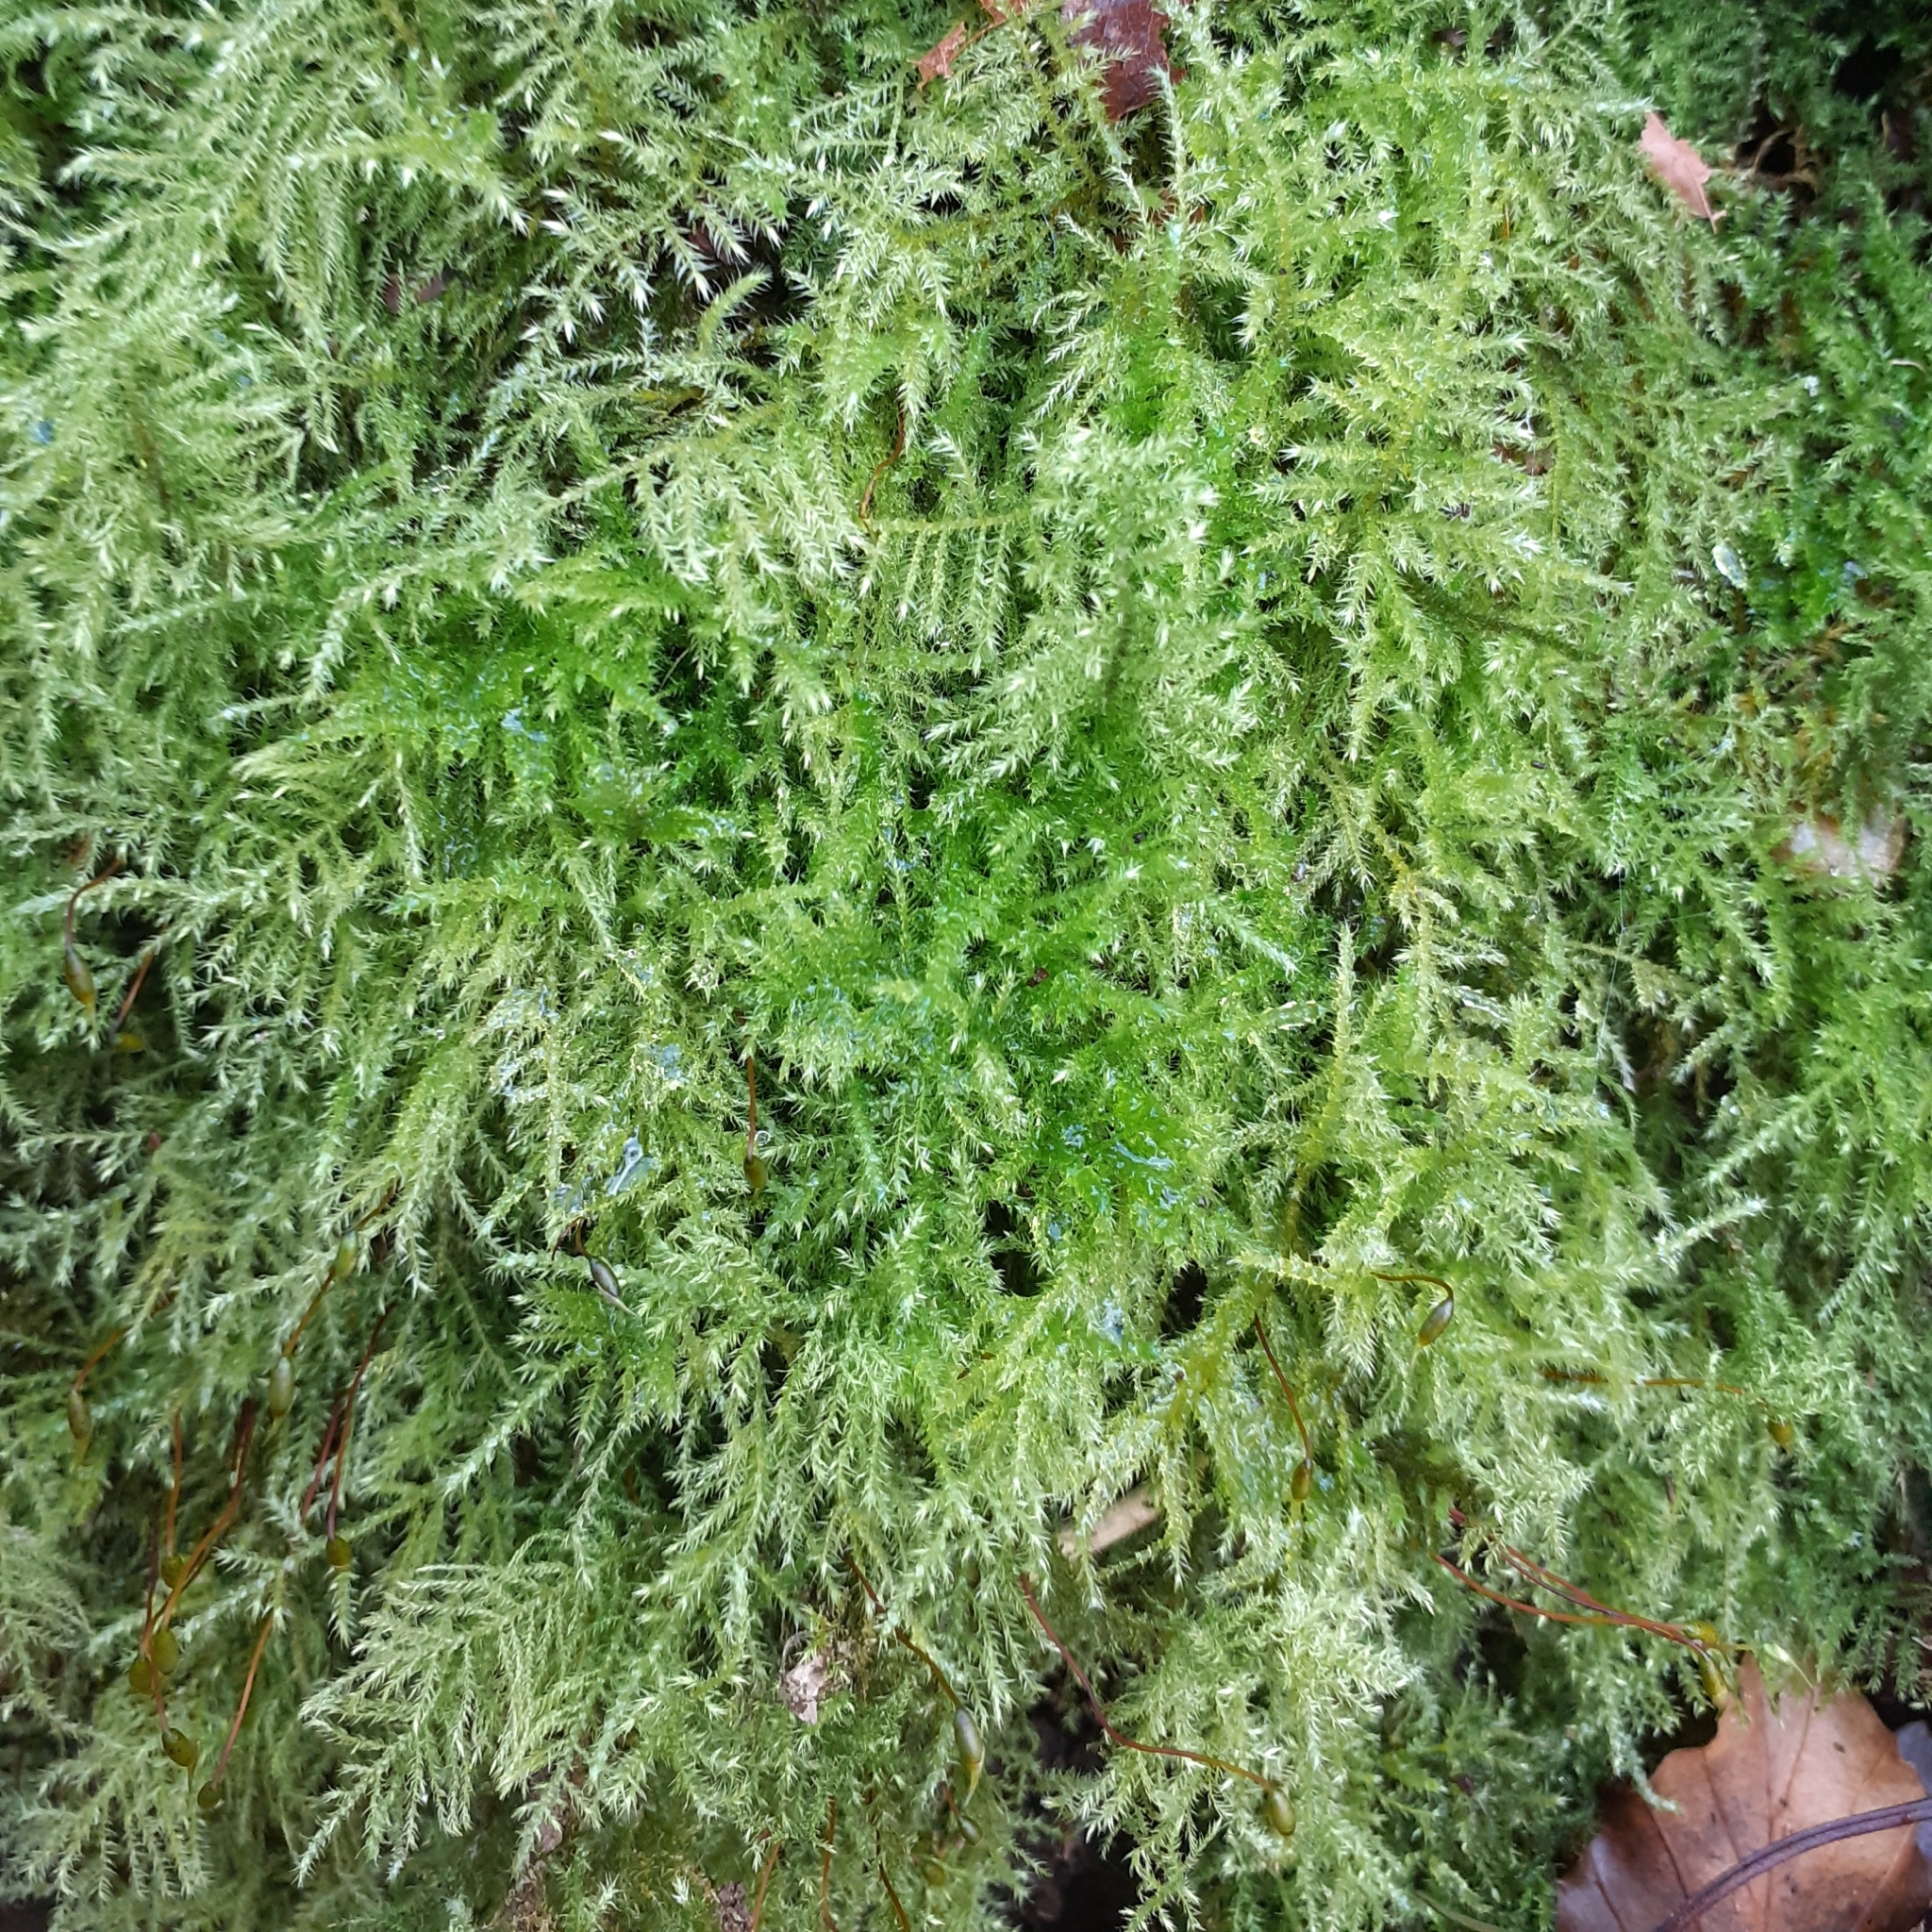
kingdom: Plantae
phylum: Bryophyta
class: Bryopsida
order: Hypnales
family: Brachytheciaceae
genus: Kindbergia
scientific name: Kindbergia praelonga
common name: Slender beaked moss
